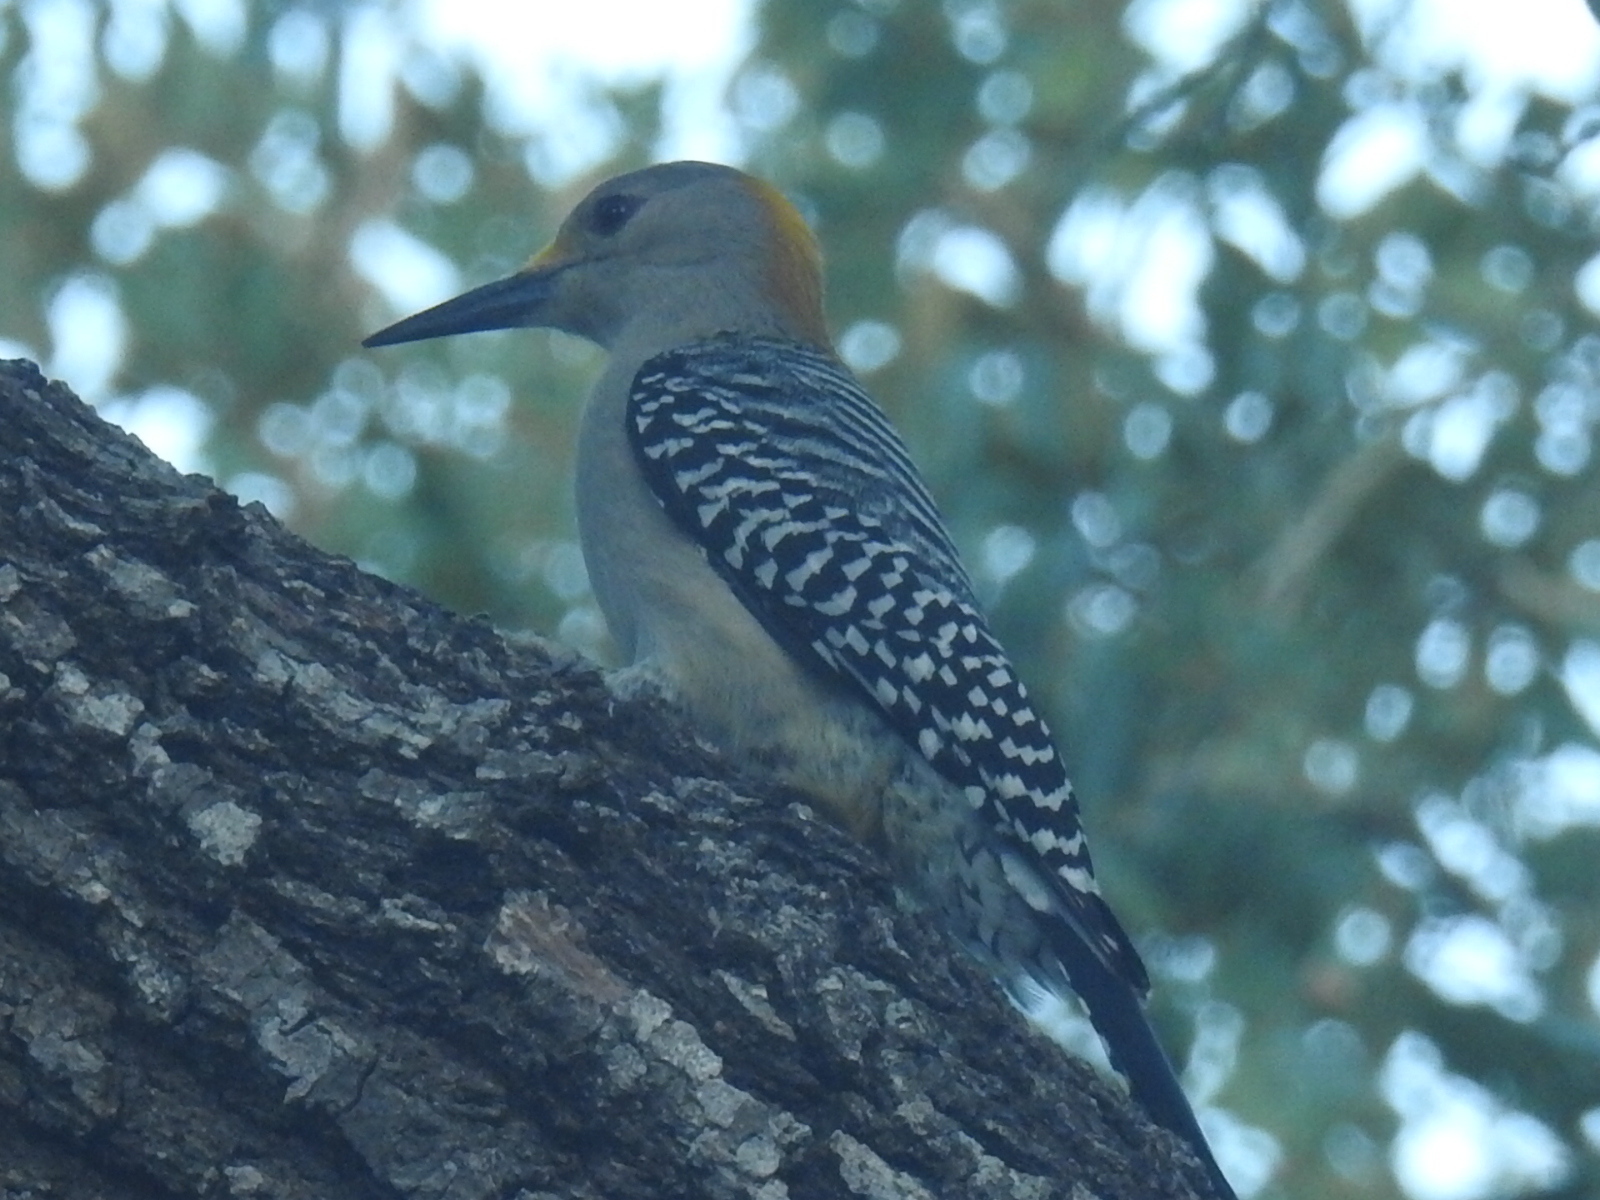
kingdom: Animalia
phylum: Chordata
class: Aves
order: Piciformes
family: Picidae
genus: Melanerpes
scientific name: Melanerpes aurifrons
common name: Golden-fronted woodpecker
